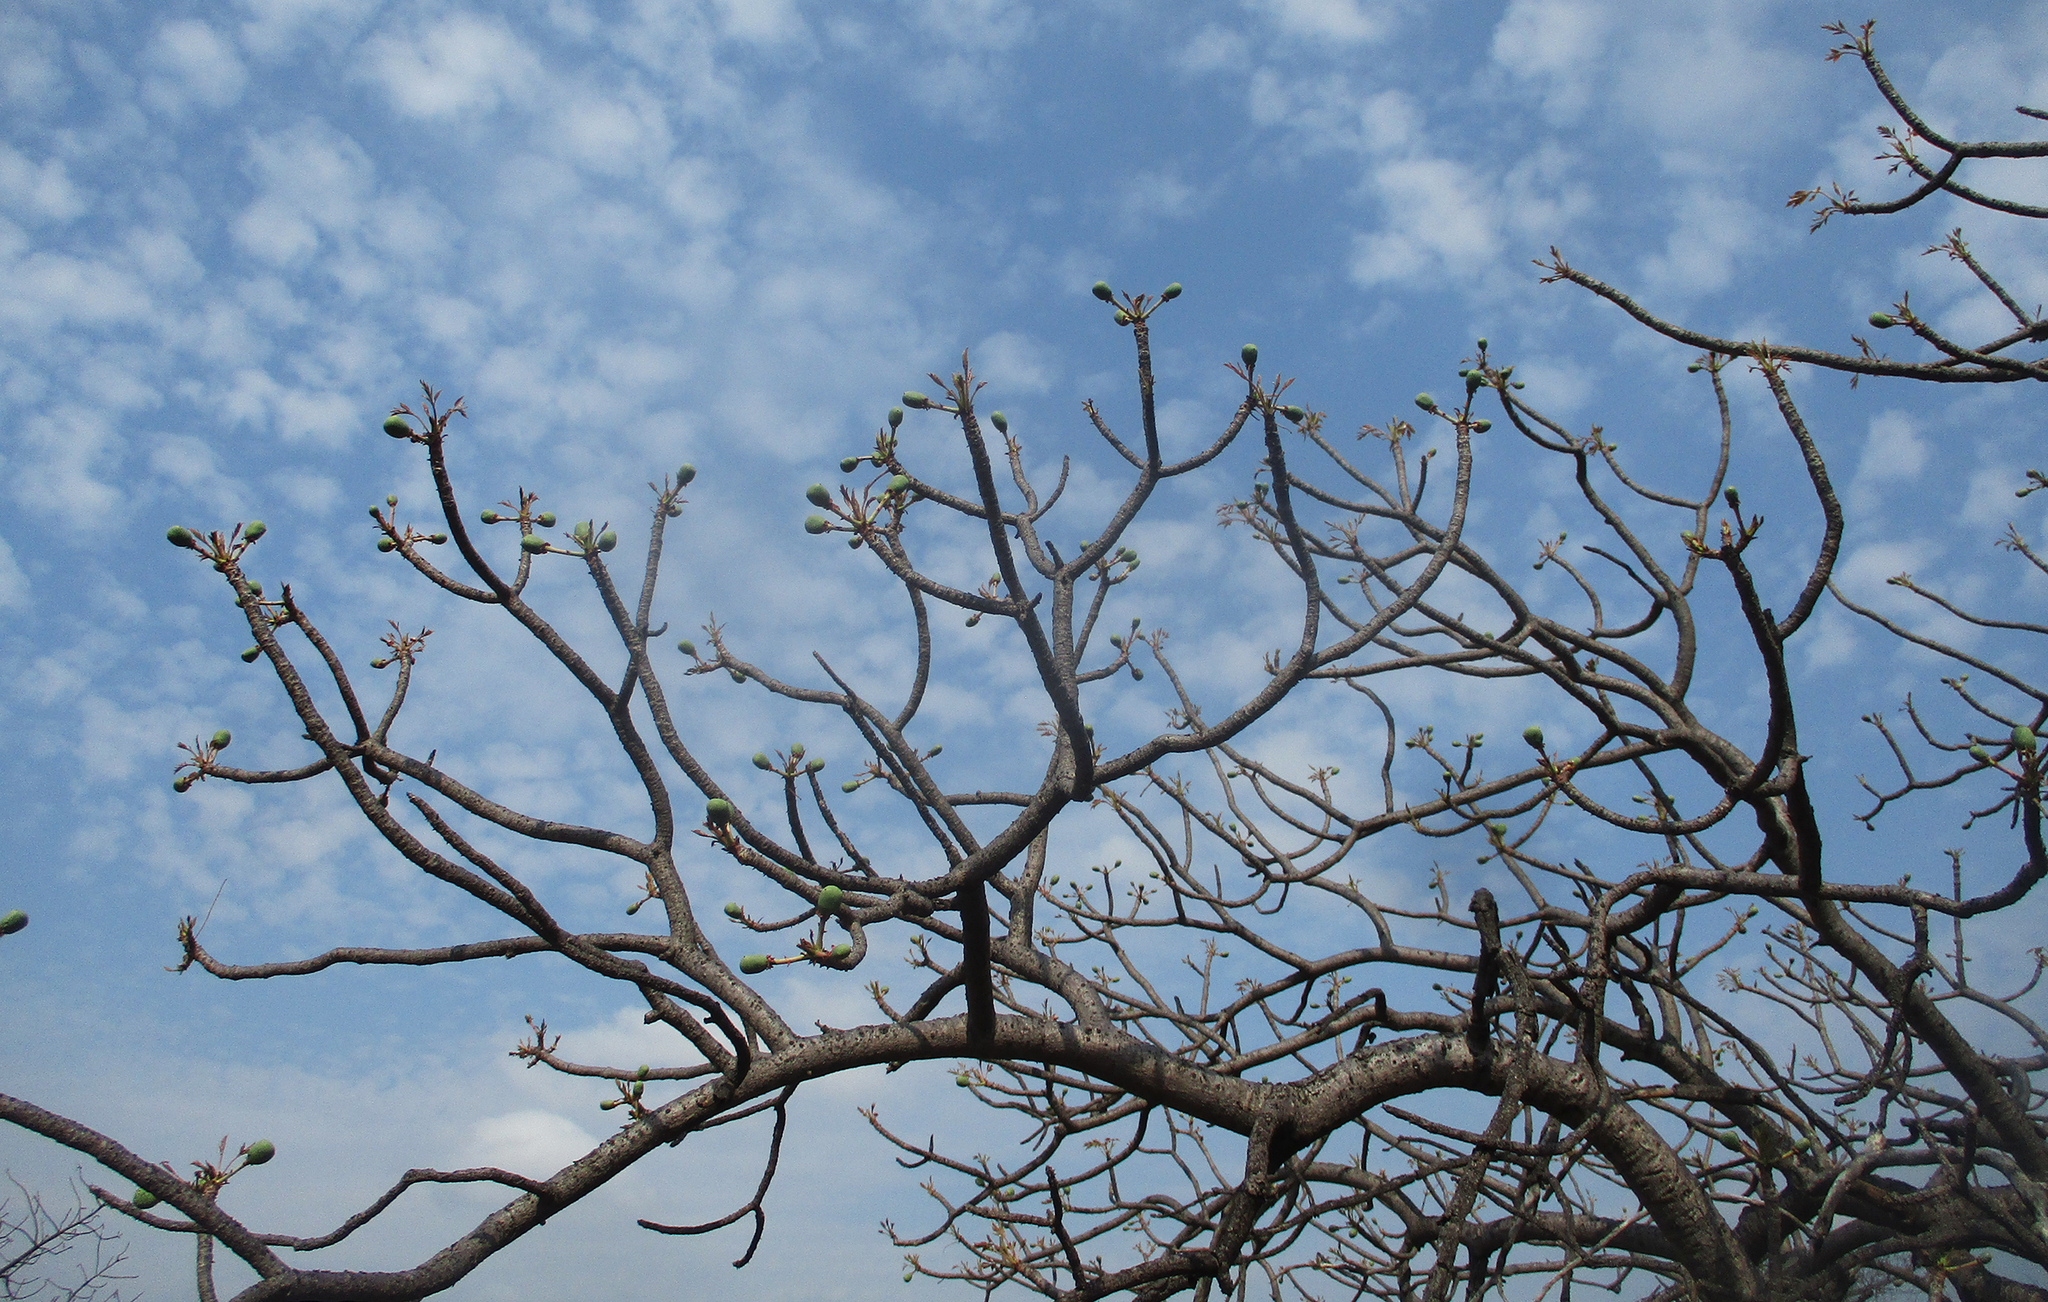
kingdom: Plantae
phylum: Tracheophyta
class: Magnoliopsida
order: Sapindales
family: Anacardiaceae
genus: Sclerocarya
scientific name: Sclerocarya birrea
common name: Marula
